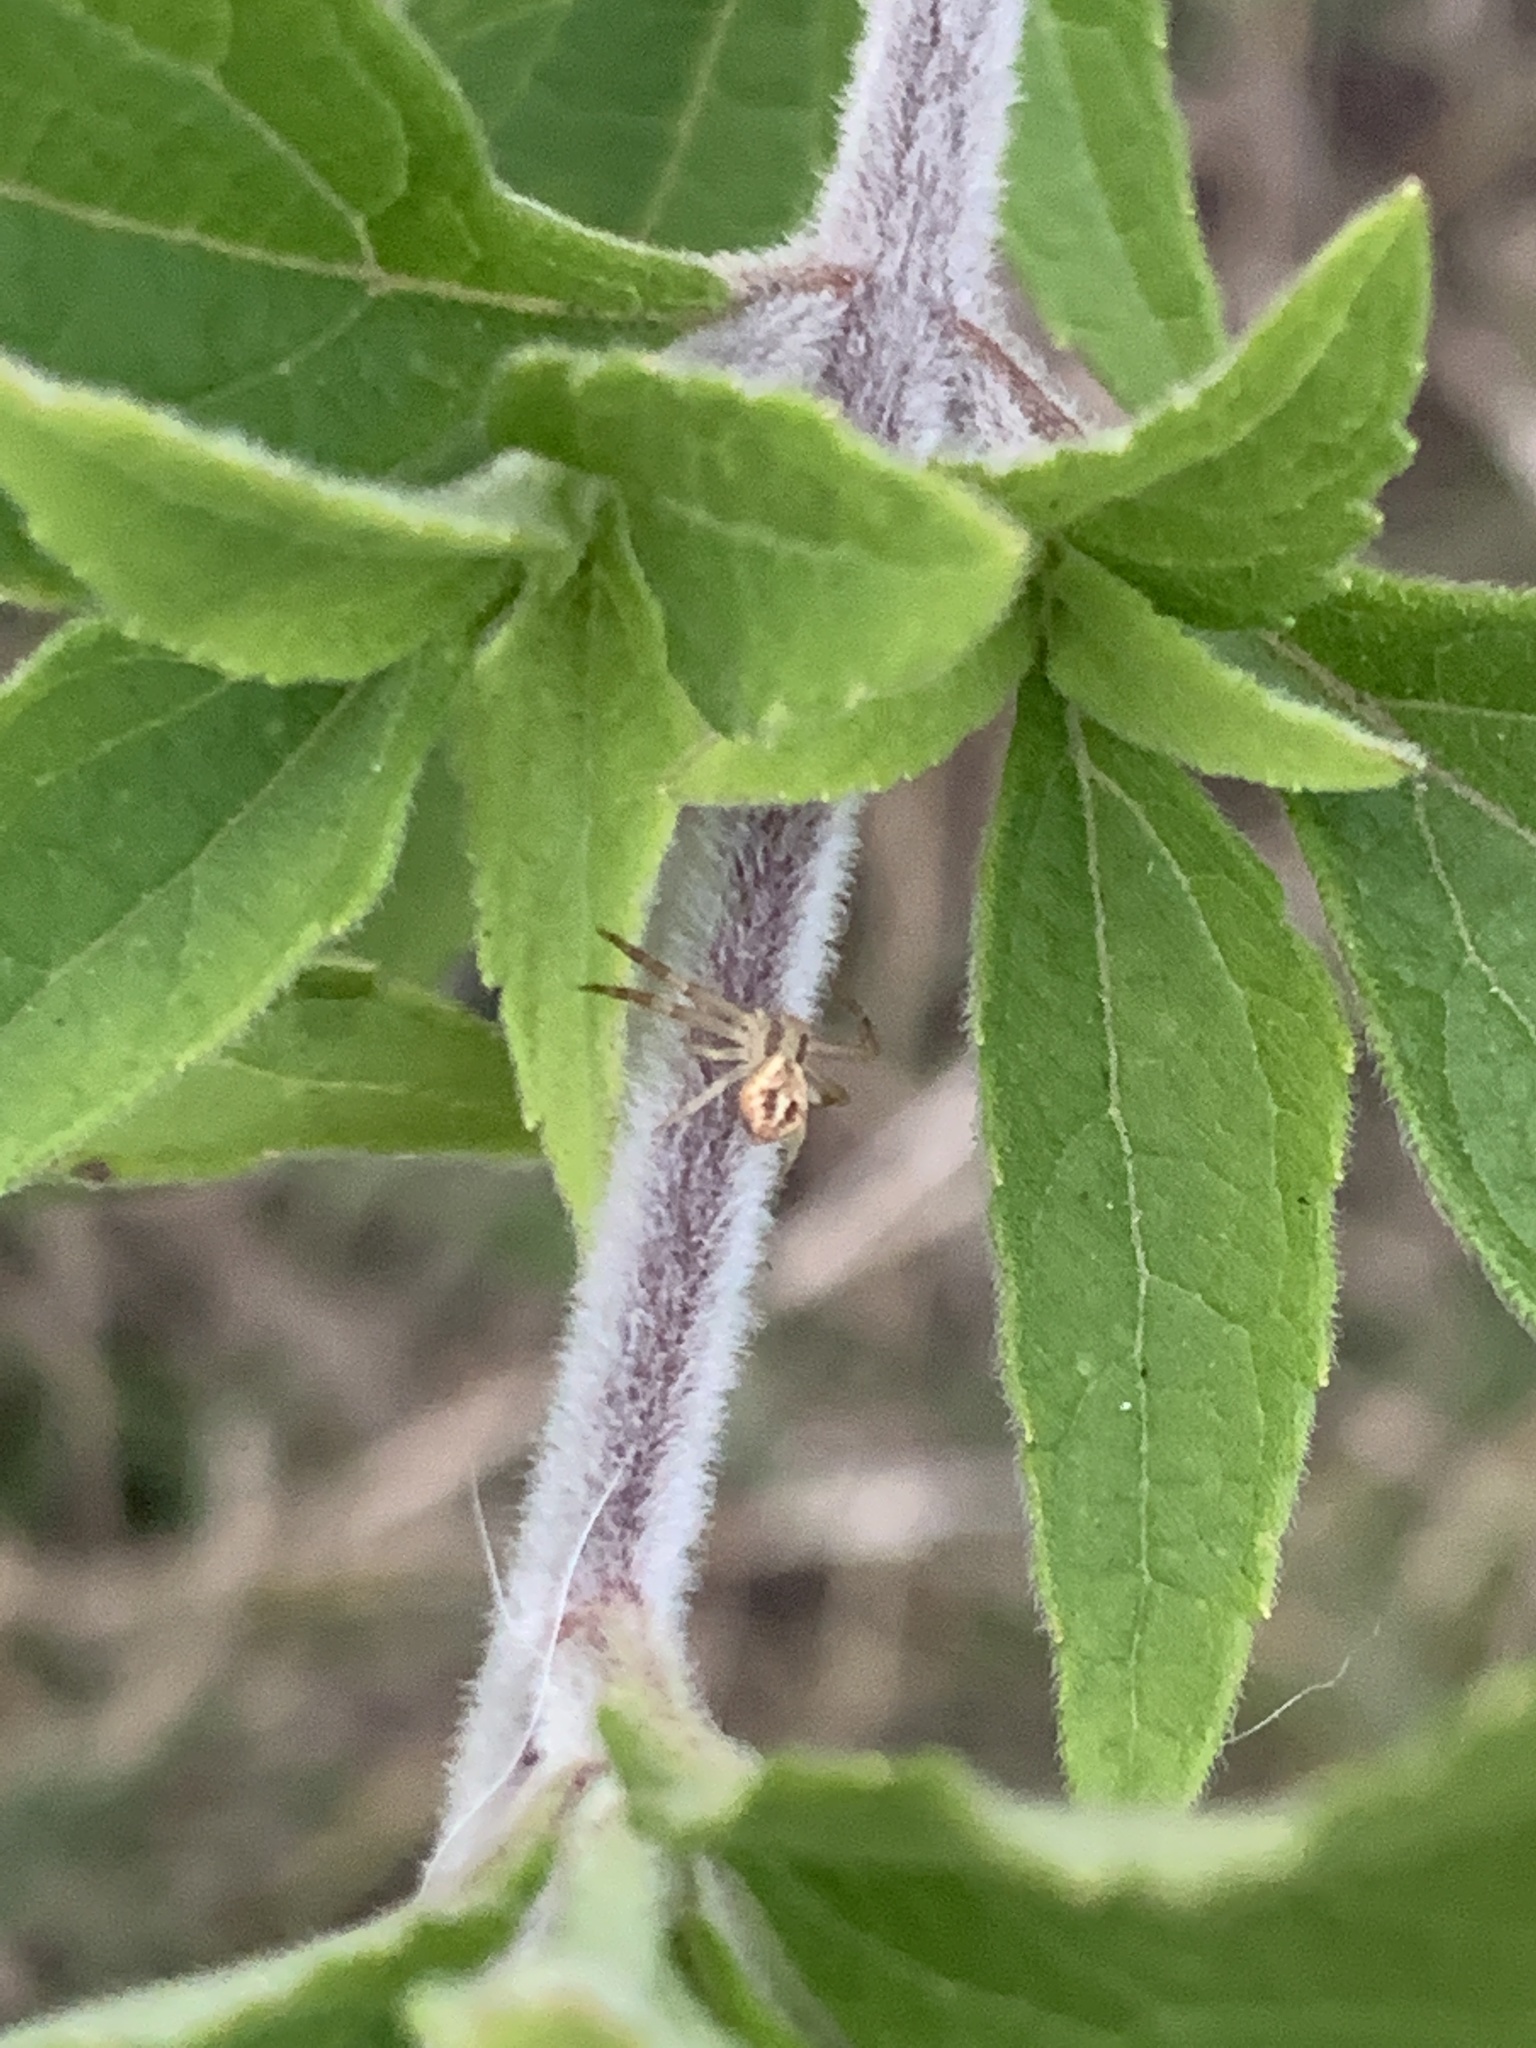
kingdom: Animalia
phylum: Arthropoda
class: Arachnida
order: Araneae
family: Thomisidae
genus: Misumenops
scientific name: Misumenops
